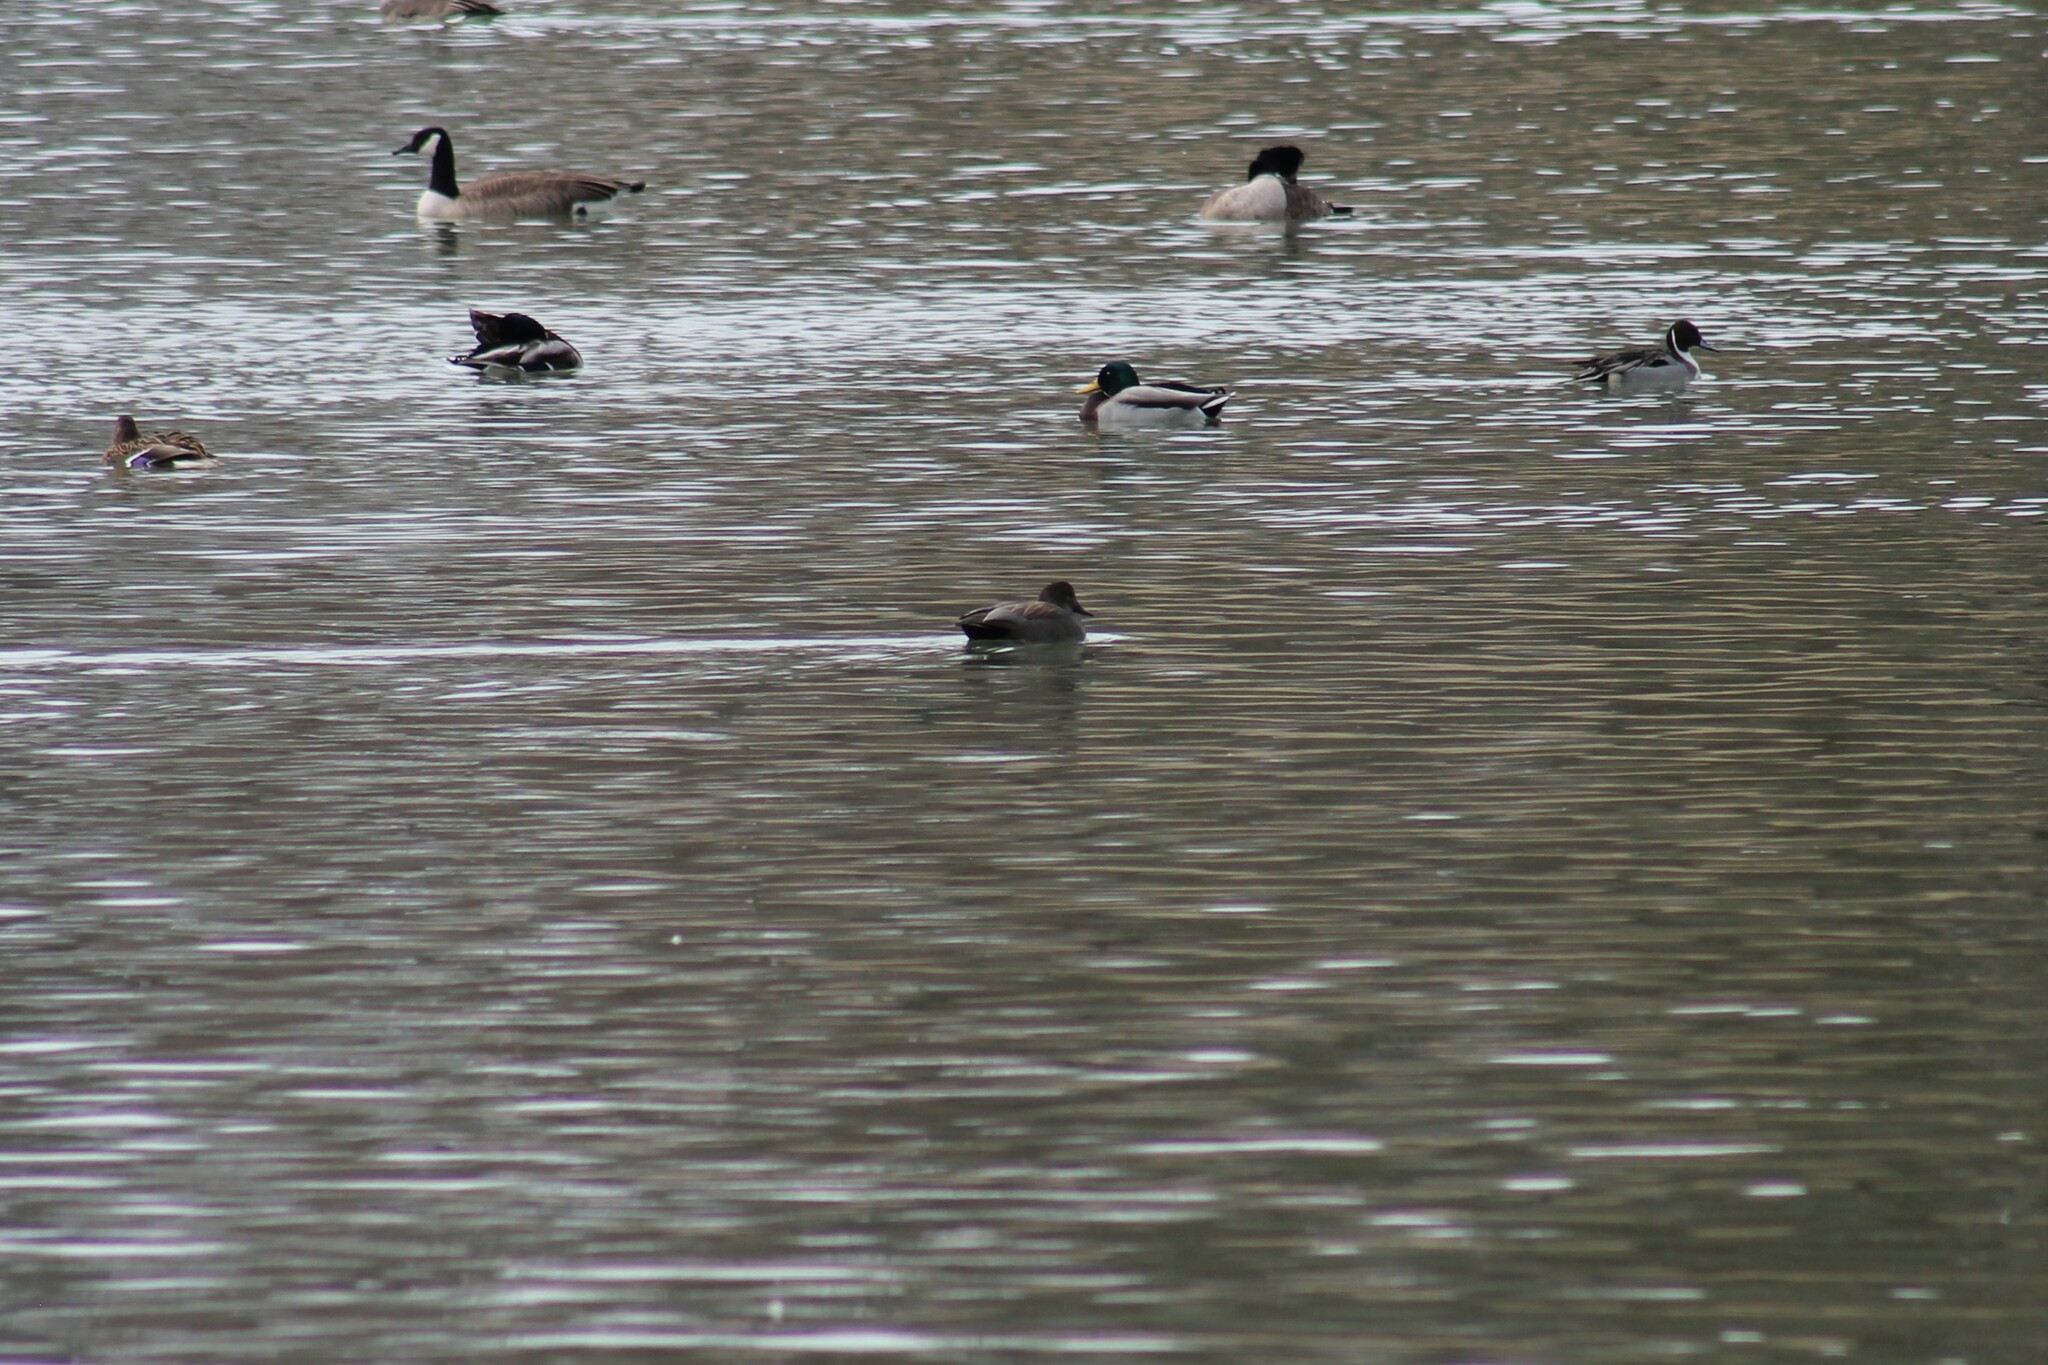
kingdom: Animalia
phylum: Chordata
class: Aves
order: Anseriformes
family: Anatidae
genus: Mareca
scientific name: Mareca strepera
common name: Gadwall
